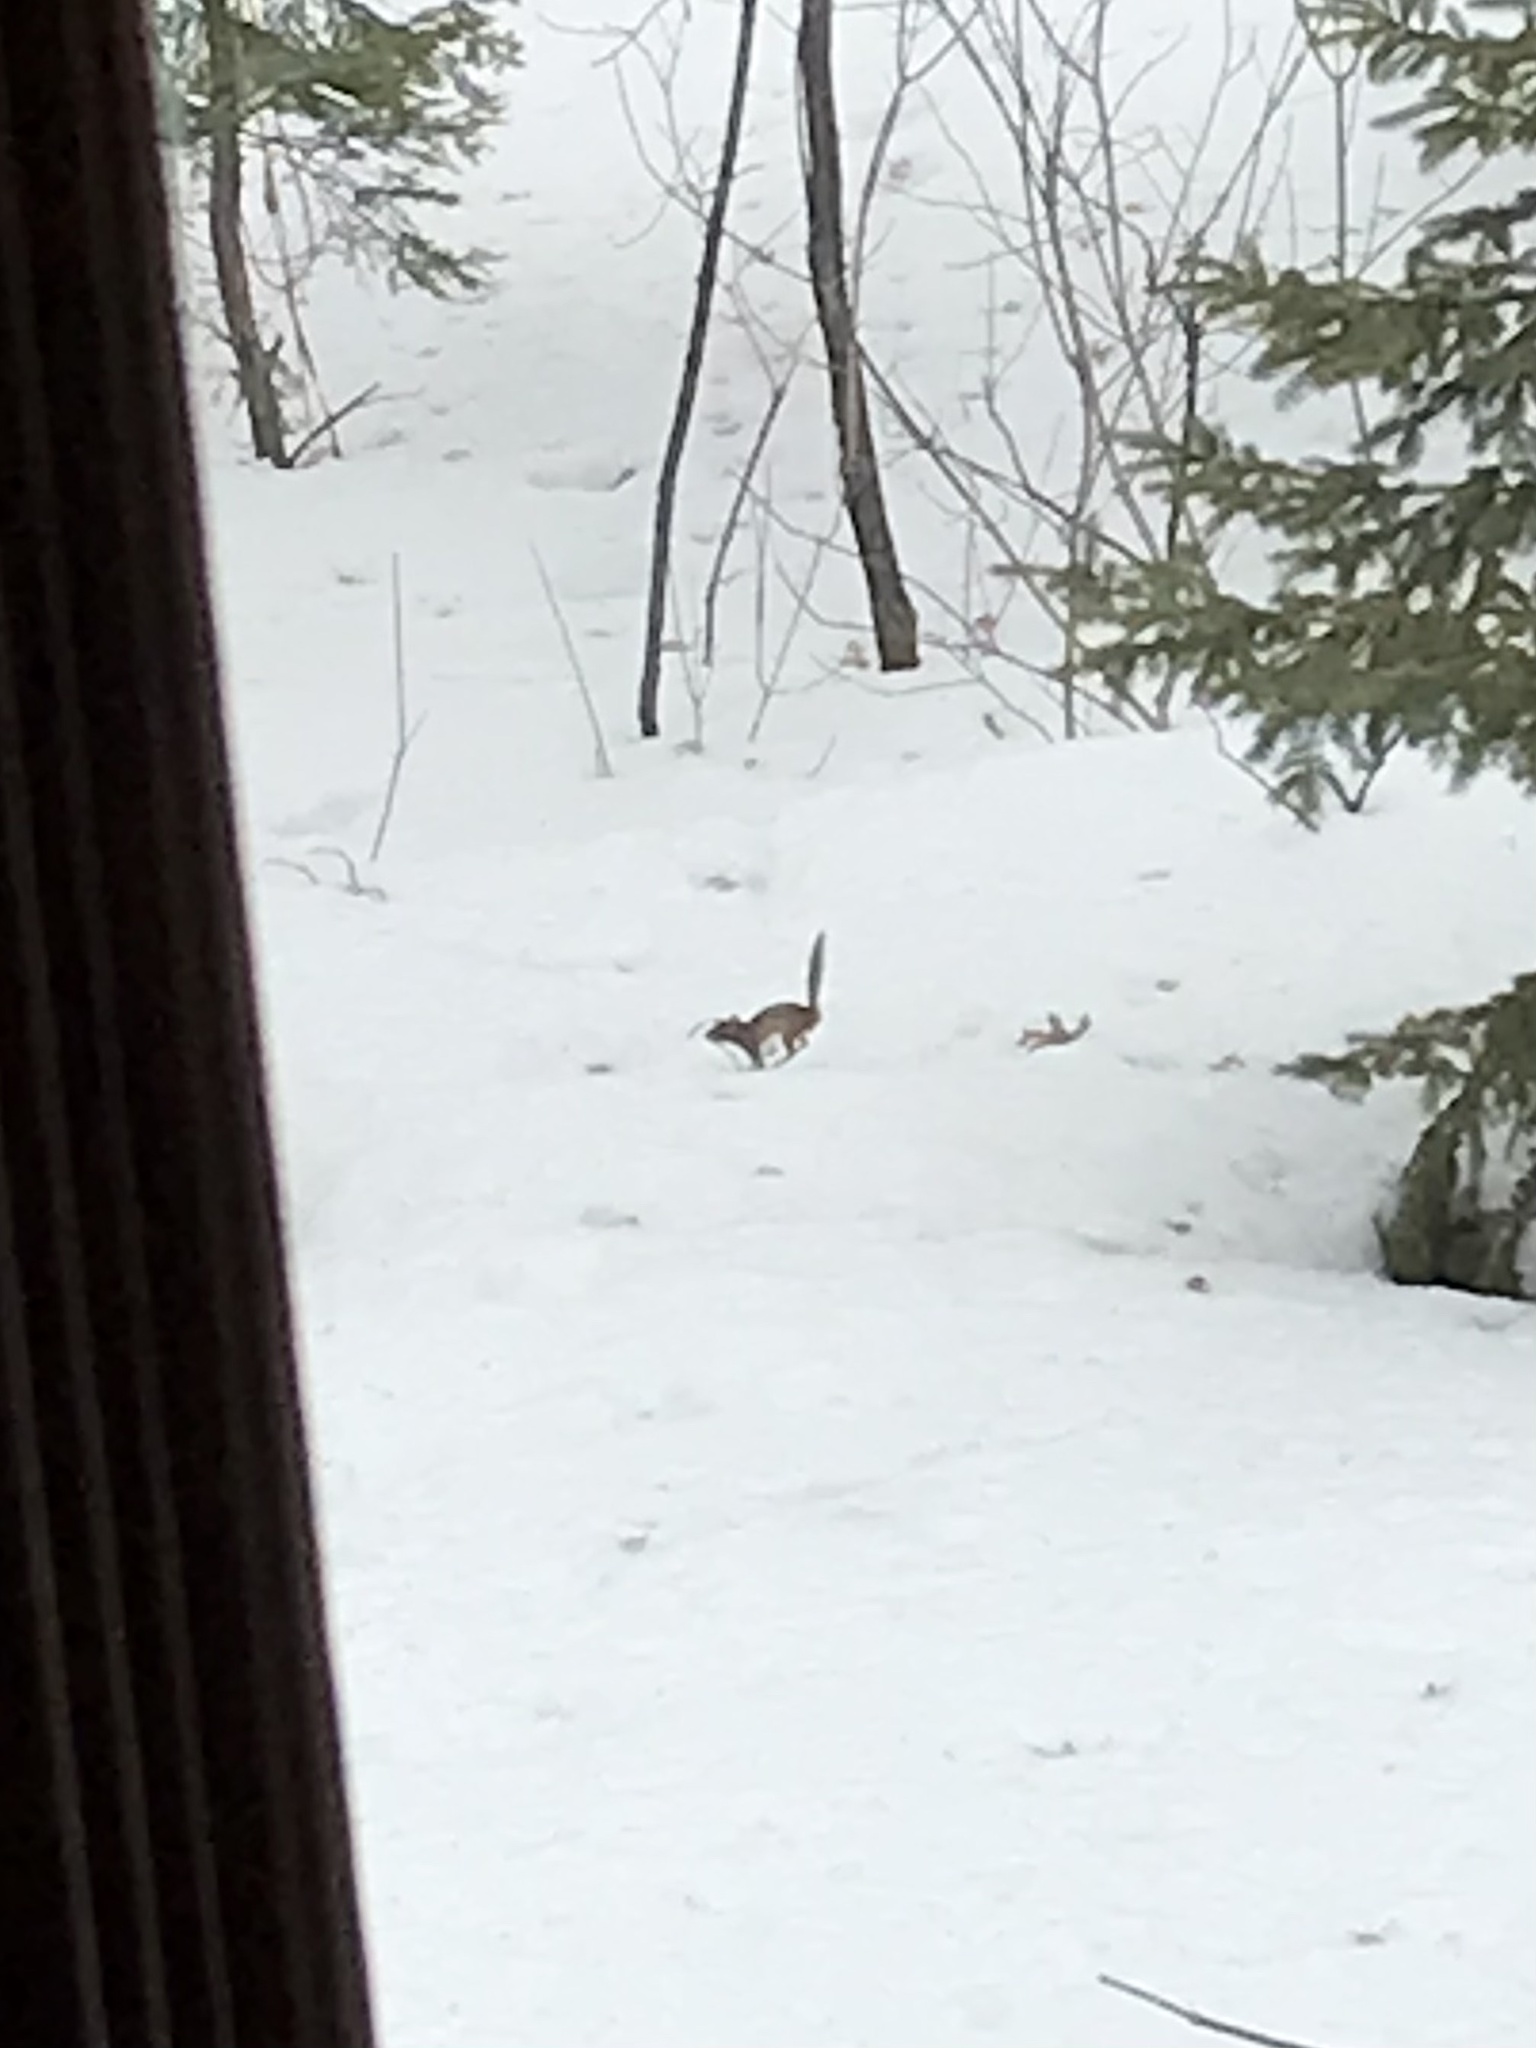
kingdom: Animalia
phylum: Chordata
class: Mammalia
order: Rodentia
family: Sciuridae
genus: Tamias
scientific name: Tamias striatus
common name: Eastern chipmunk
